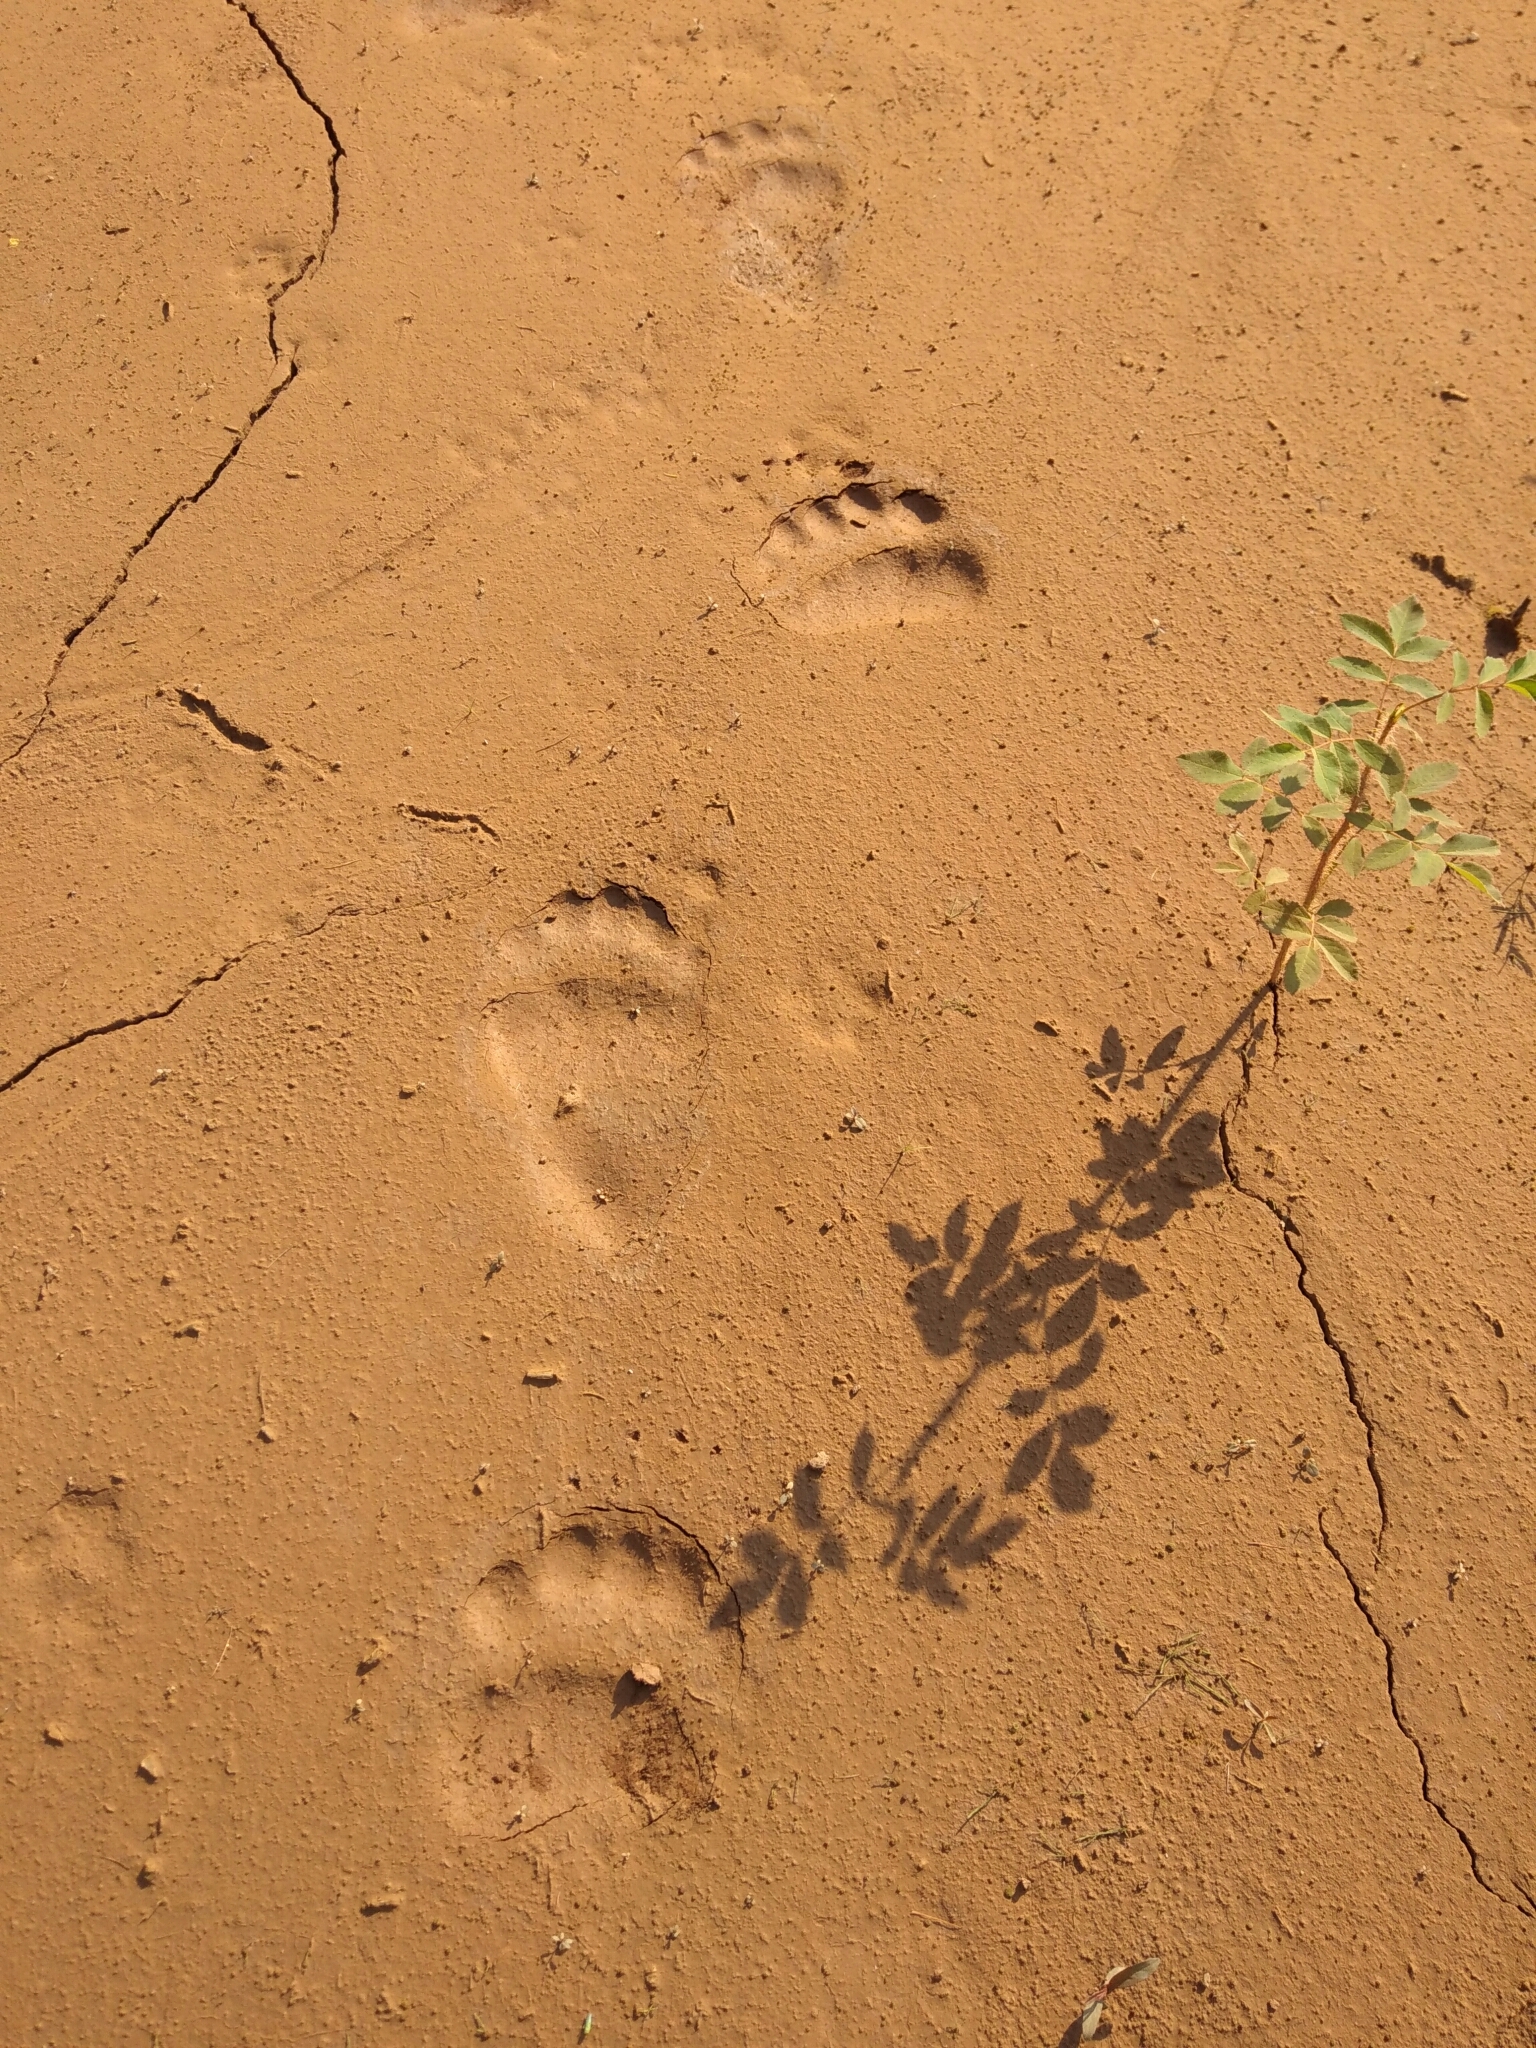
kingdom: Animalia
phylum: Chordata
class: Mammalia
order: Carnivora
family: Ursidae
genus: Ursus
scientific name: Ursus arctos
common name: Brown bear
